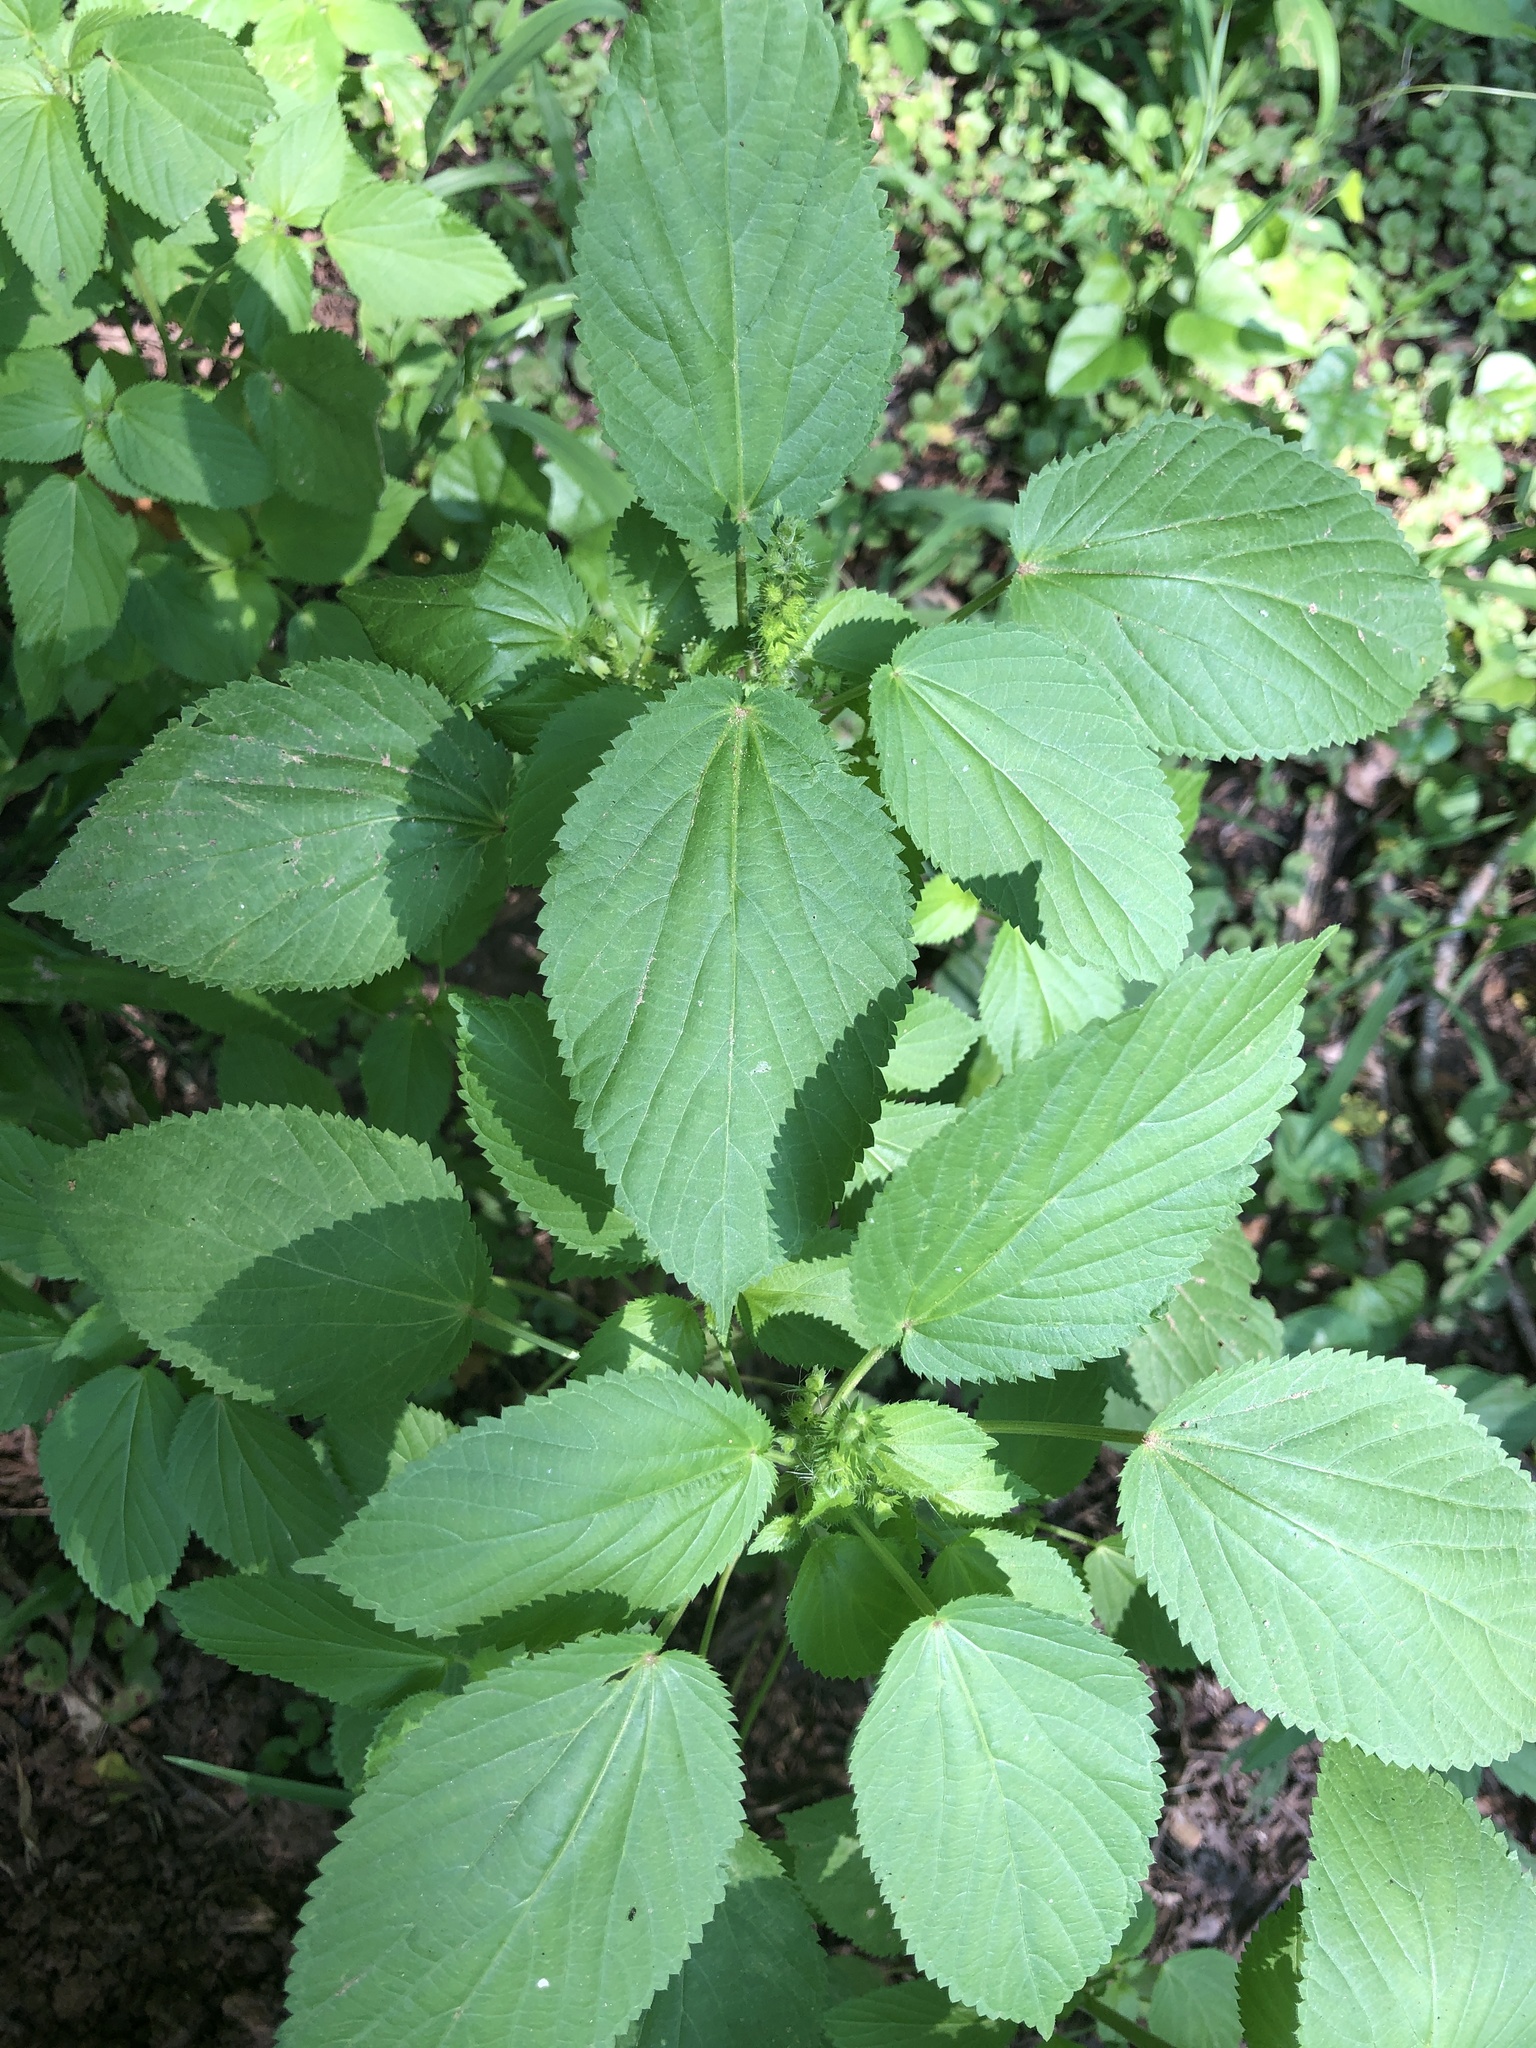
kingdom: Plantae
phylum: Tracheophyta
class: Magnoliopsida
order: Malpighiales
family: Euphorbiaceae
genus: Acalypha
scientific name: Acalypha ostryifolia
